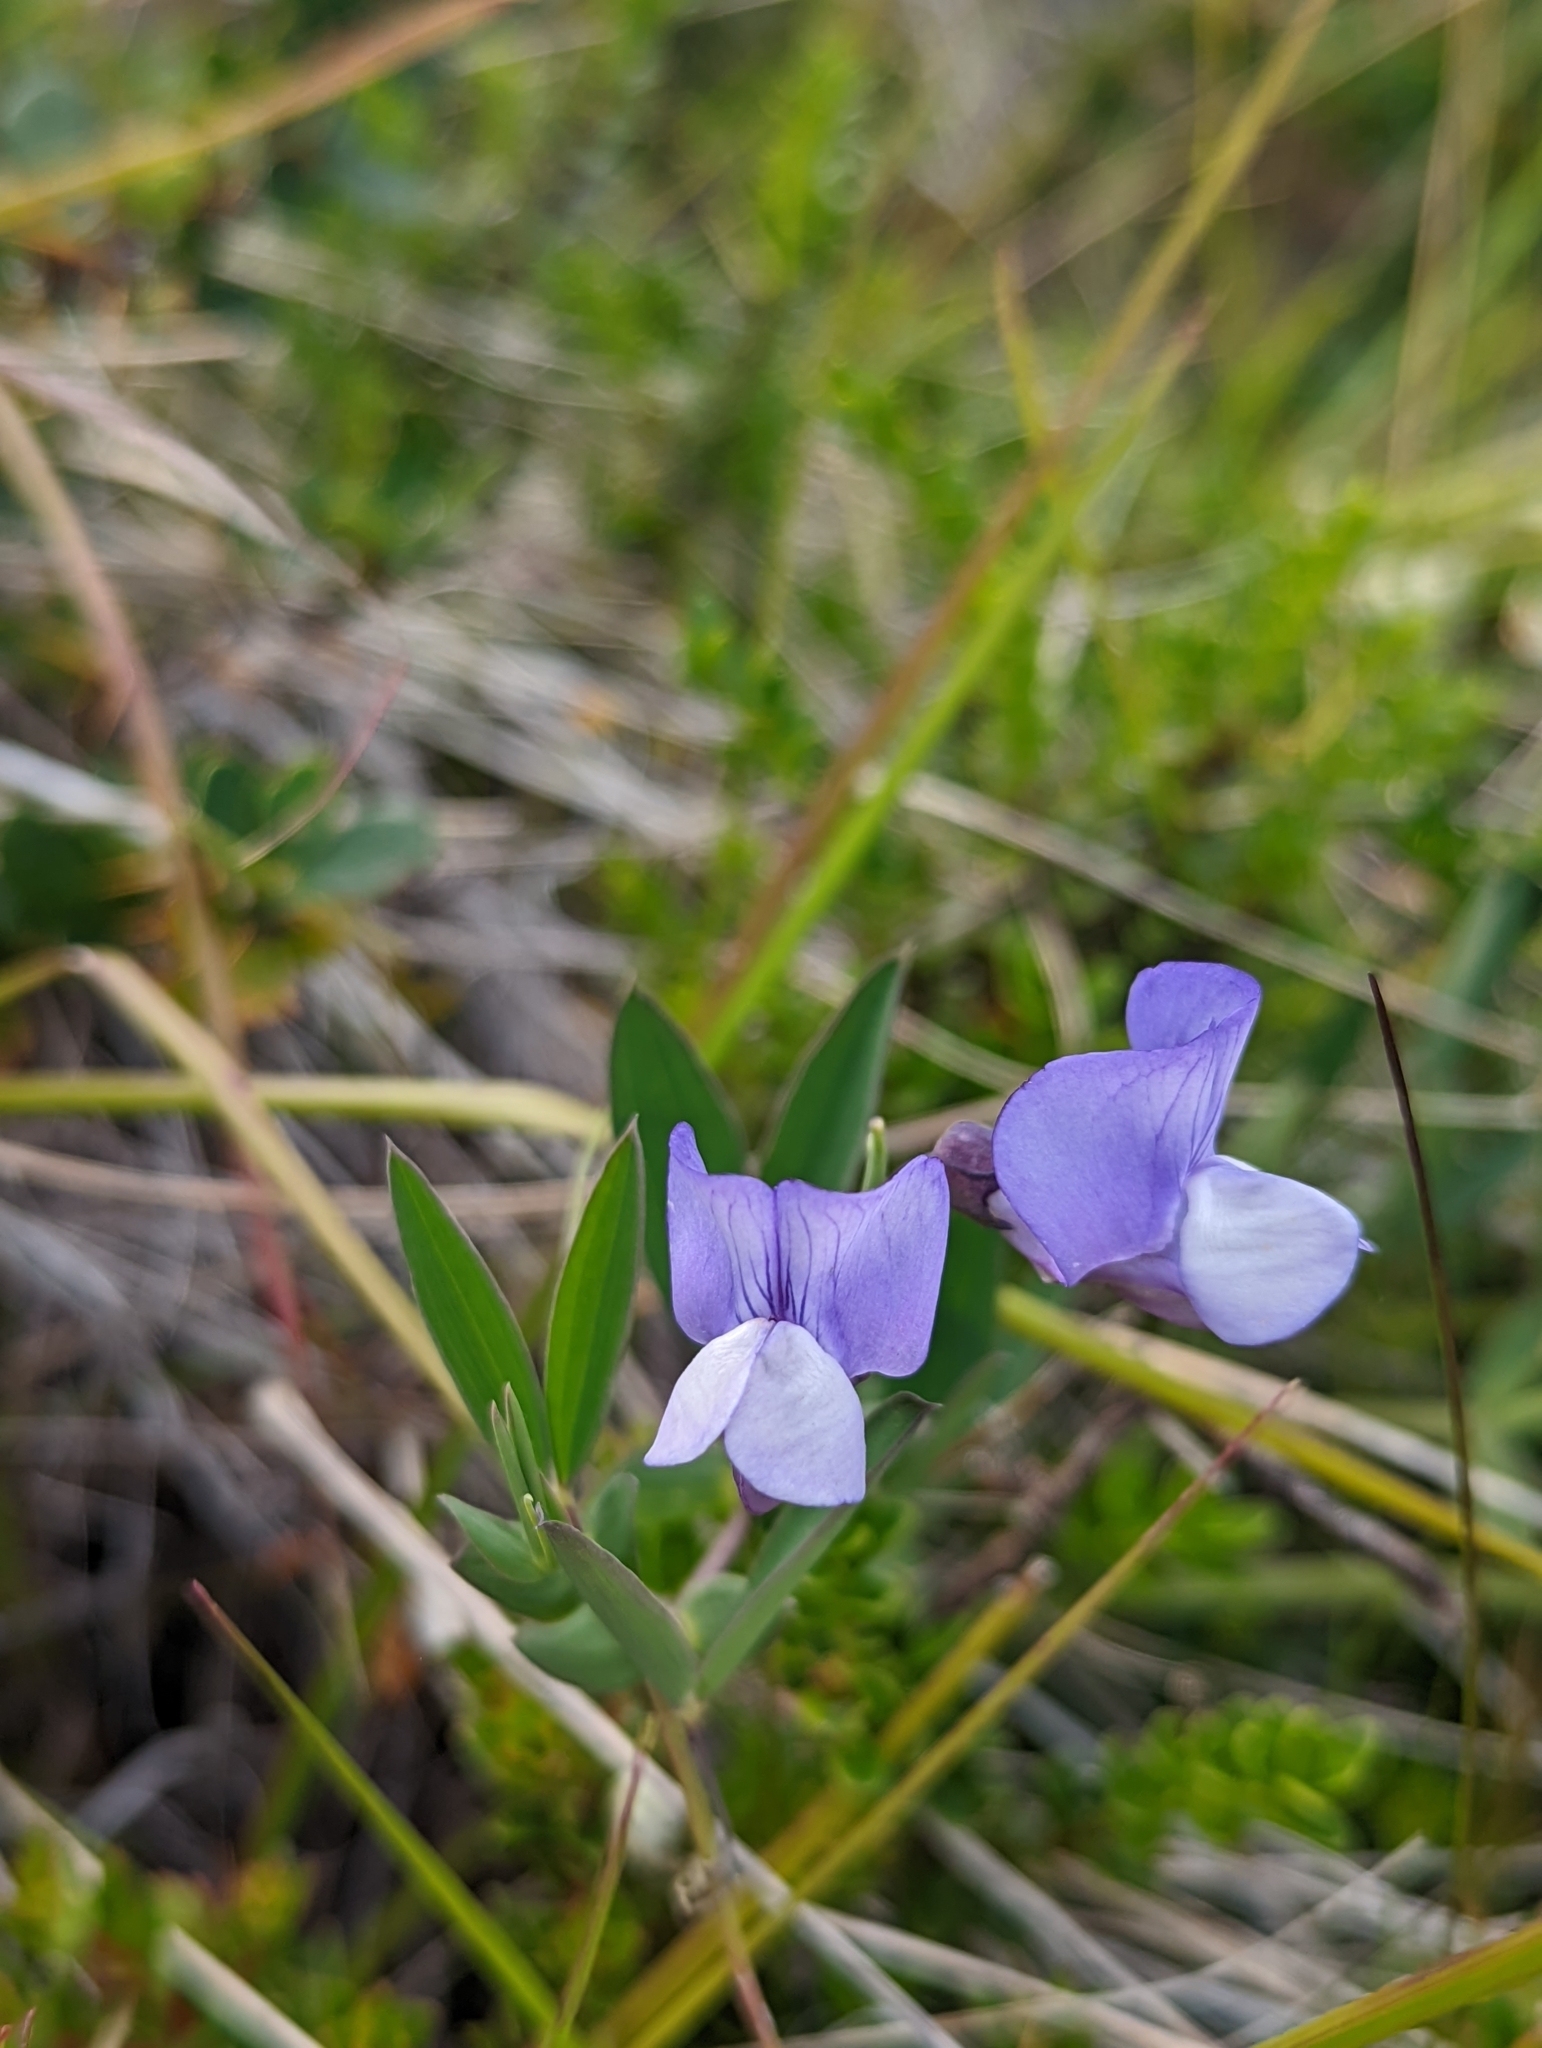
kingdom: Plantae
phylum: Tracheophyta
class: Magnoliopsida
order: Fabales
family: Fabaceae
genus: Lathyrus
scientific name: Lathyrus magellanicus
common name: Lord anson's pea
